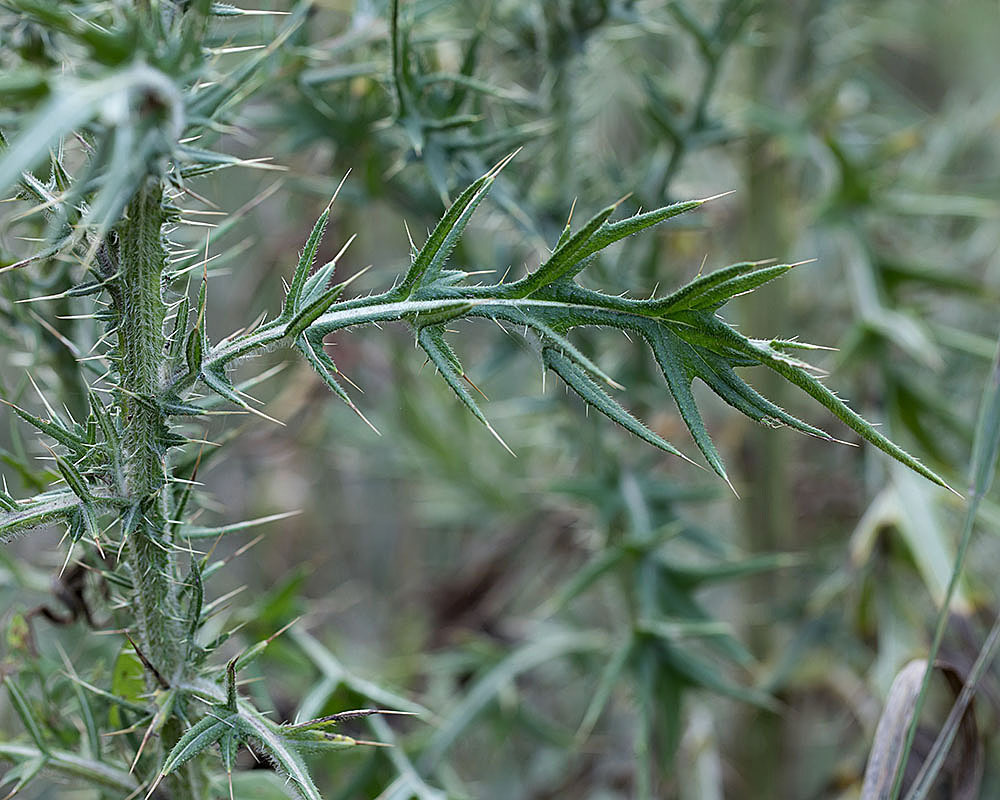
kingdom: Plantae
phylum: Tracheophyta
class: Magnoliopsida
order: Asterales
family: Asteraceae
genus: Cirsium
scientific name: Cirsium vulgare
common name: Bull thistle
